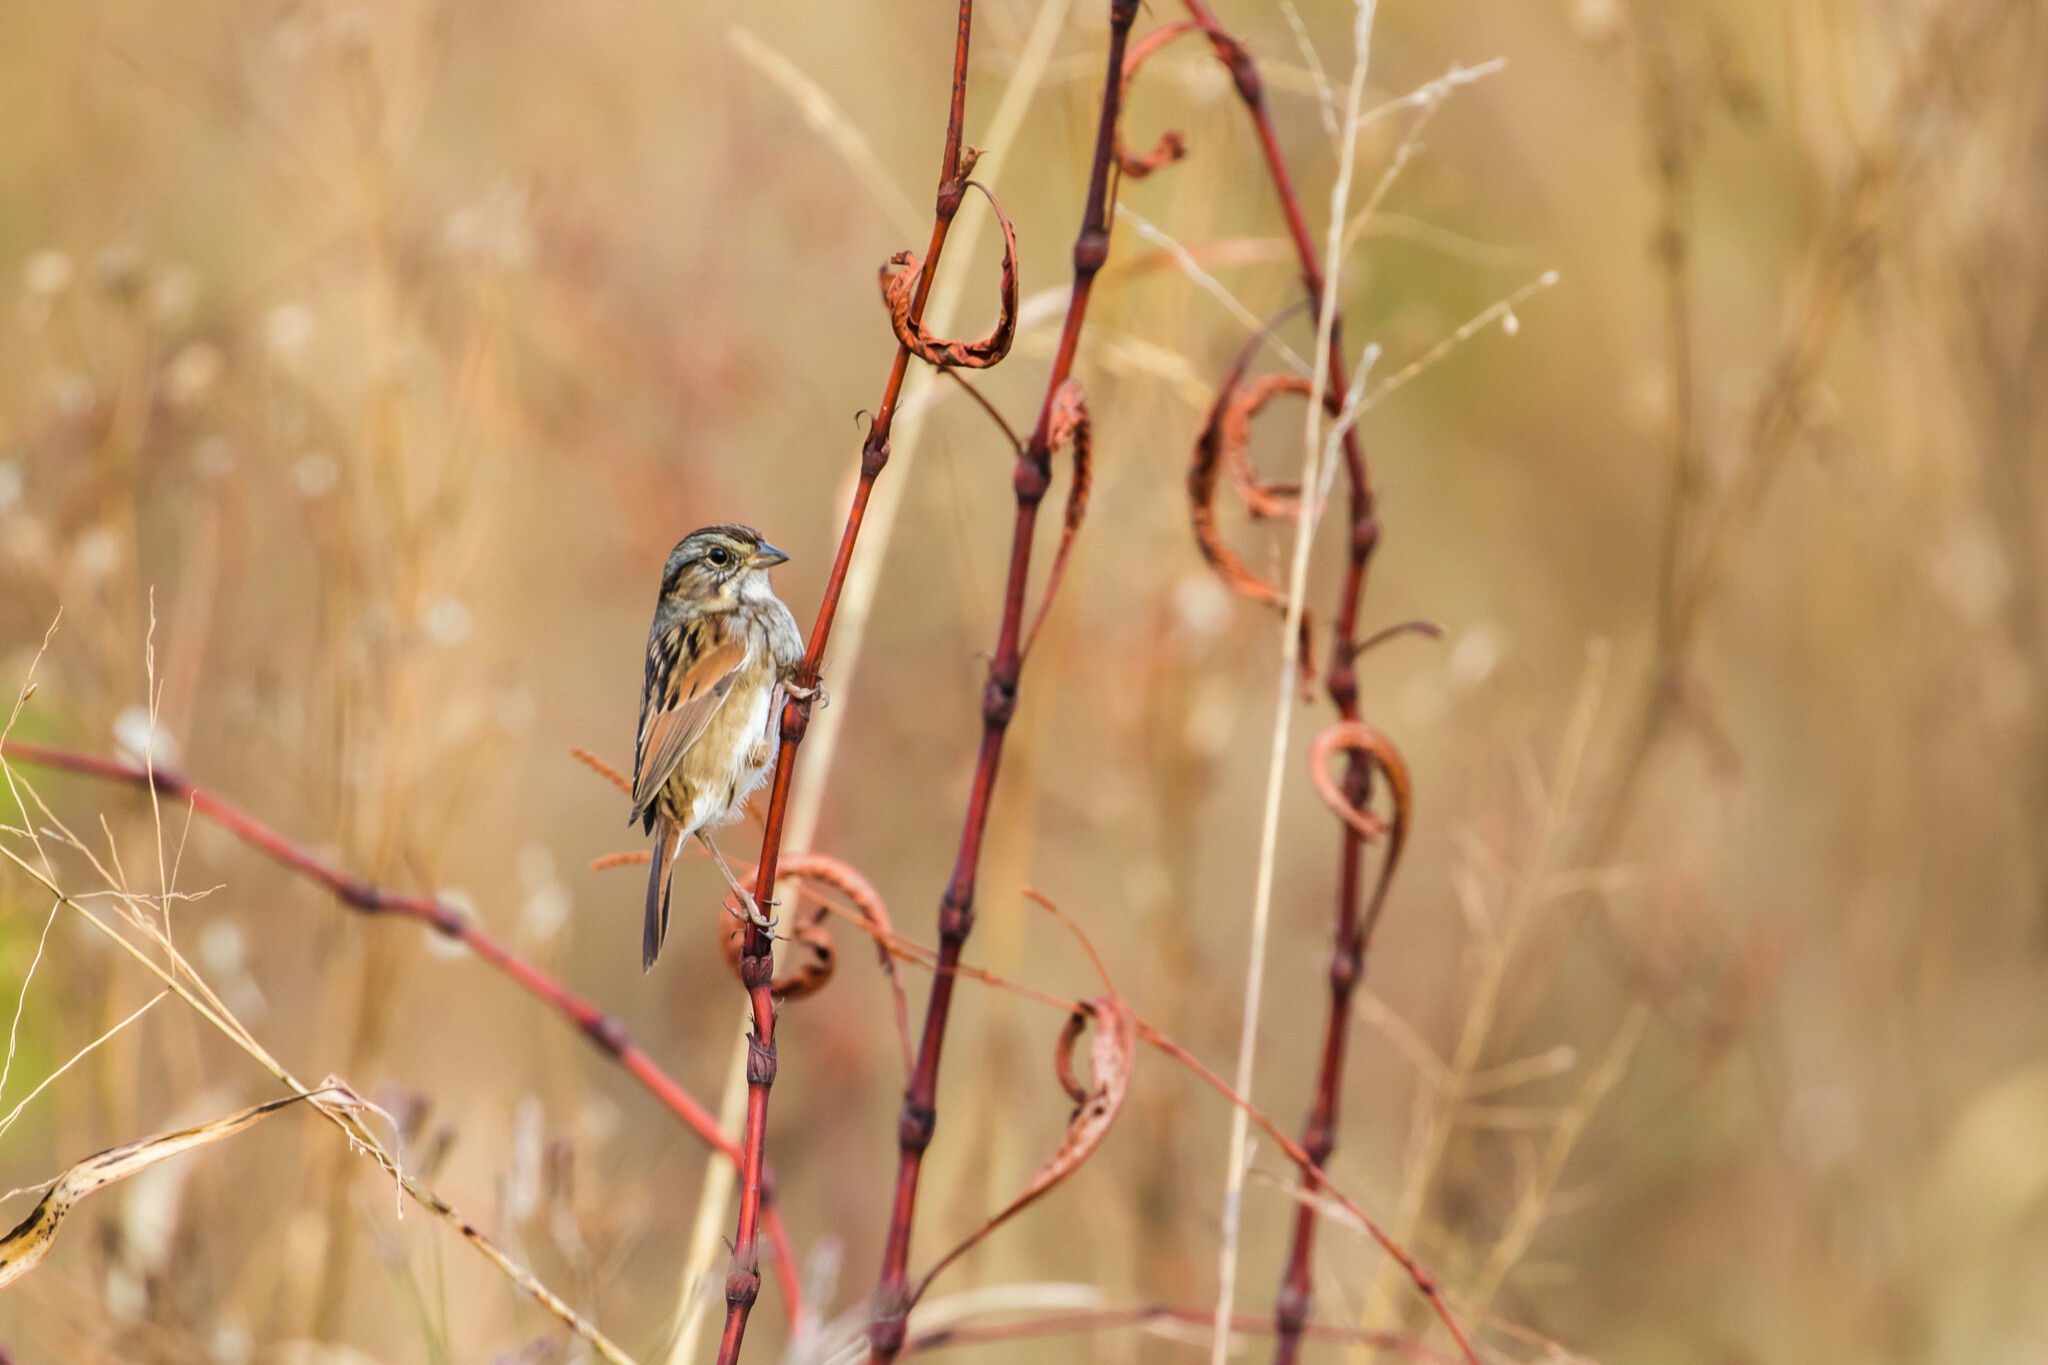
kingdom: Animalia
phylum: Chordata
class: Aves
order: Passeriformes
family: Passerellidae
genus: Melospiza
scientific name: Melospiza georgiana
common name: Swamp sparrow
